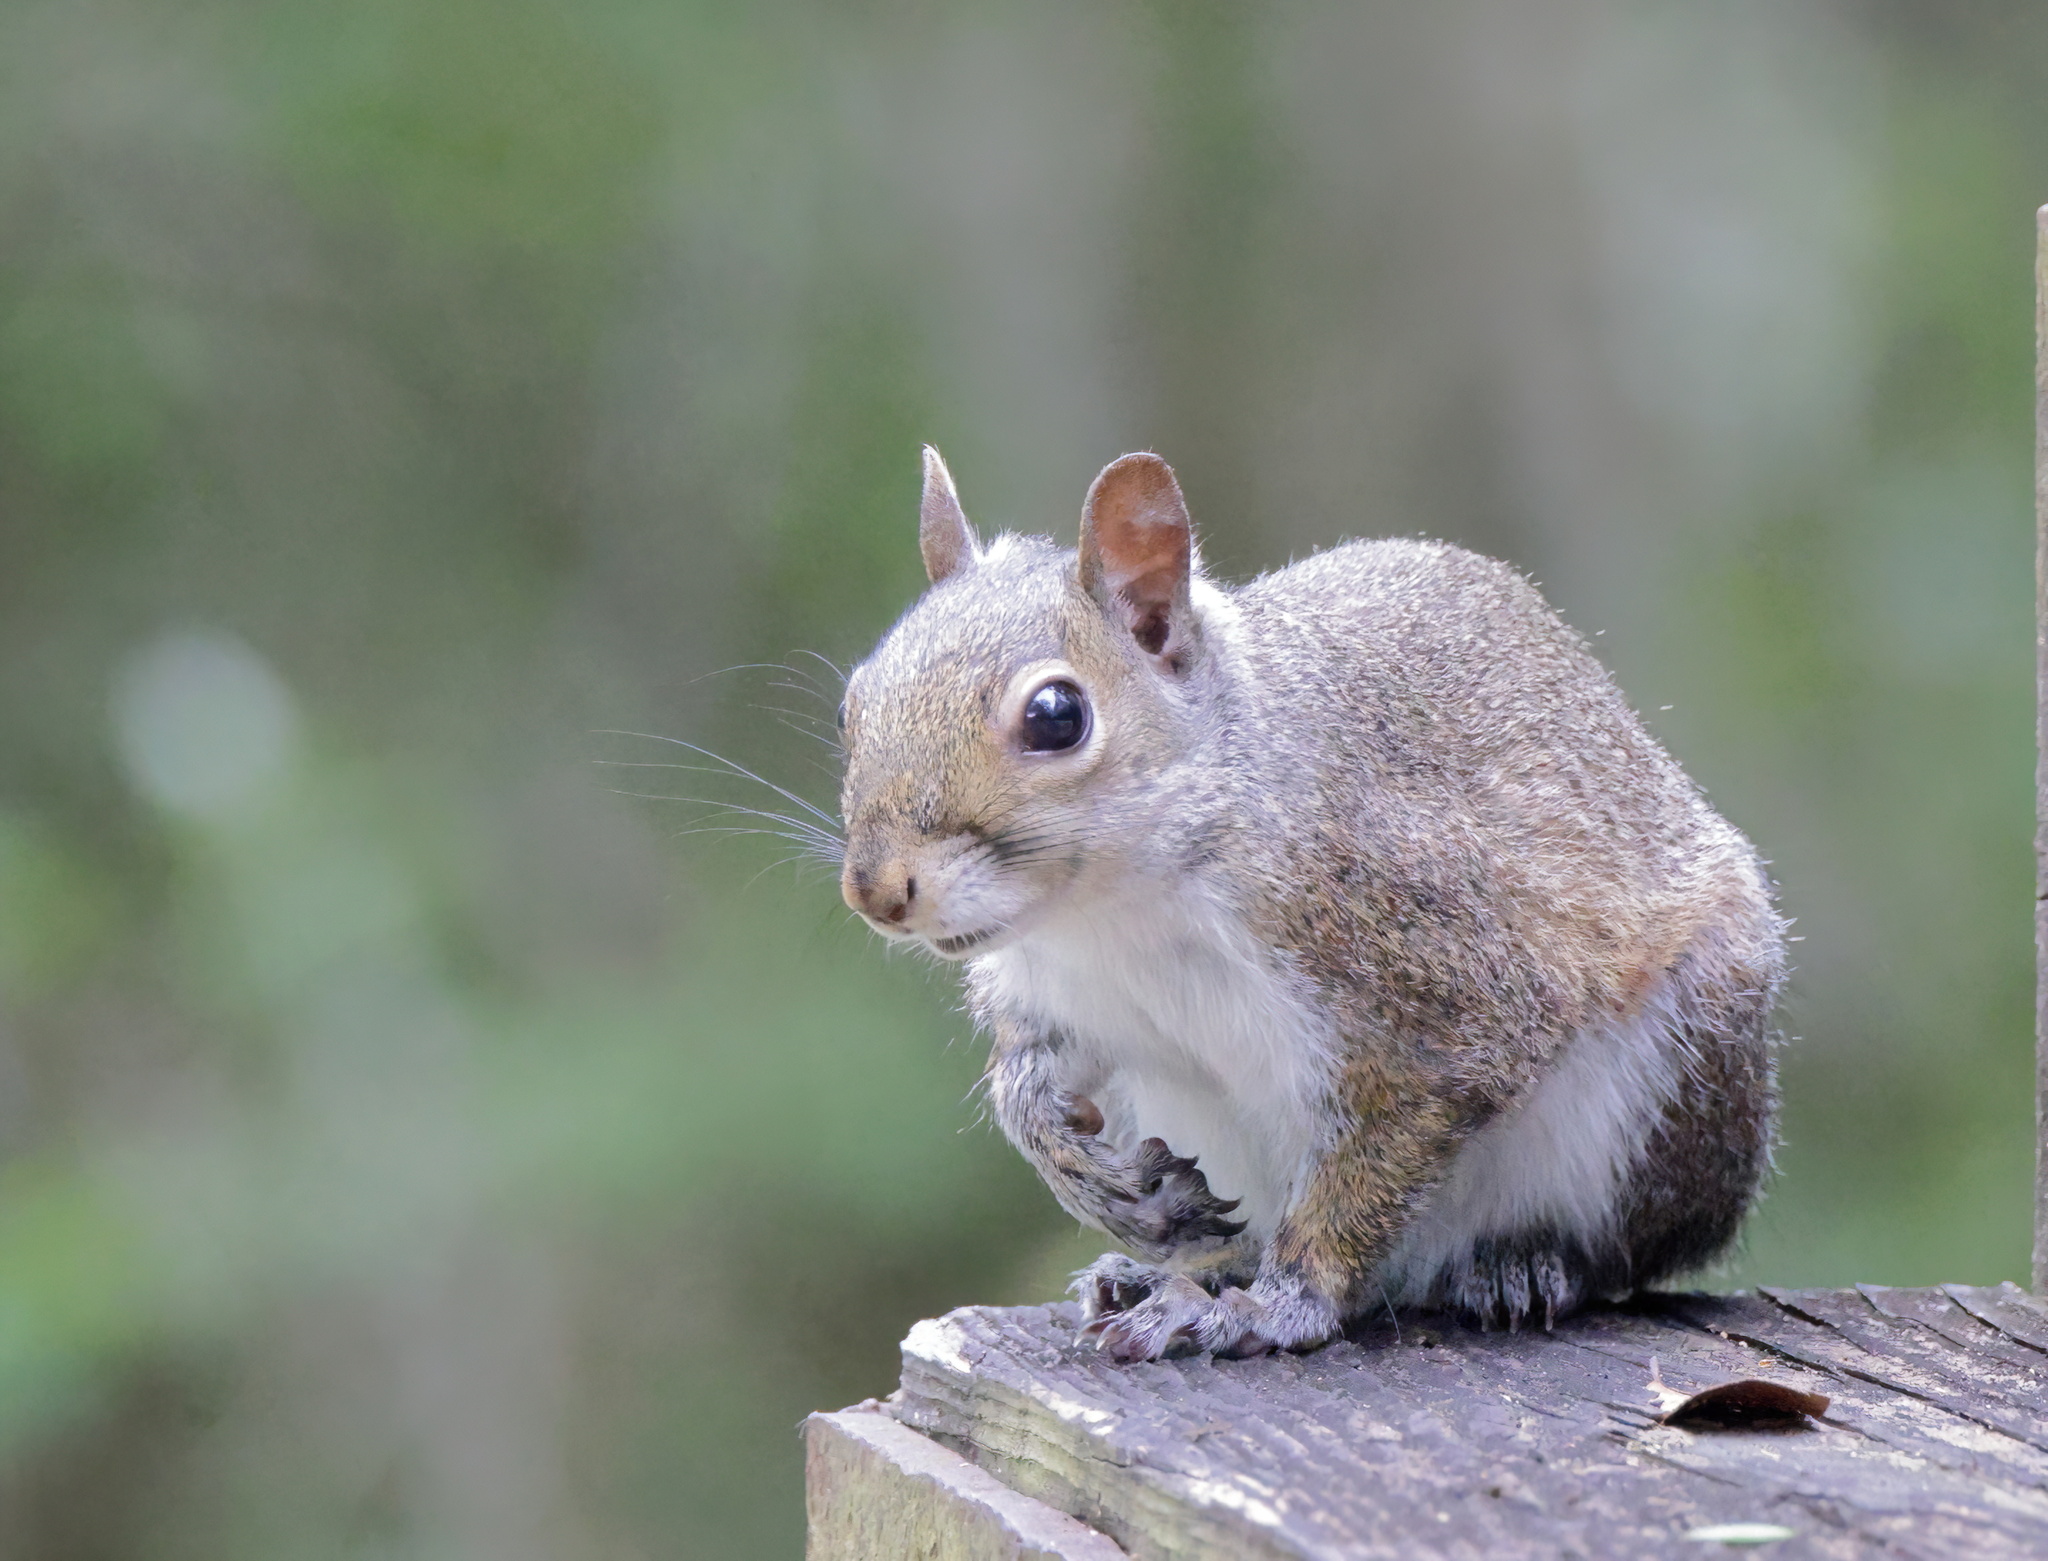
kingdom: Animalia
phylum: Chordata
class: Mammalia
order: Rodentia
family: Sciuridae
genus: Sciurus
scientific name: Sciurus carolinensis
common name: Eastern gray squirrel
